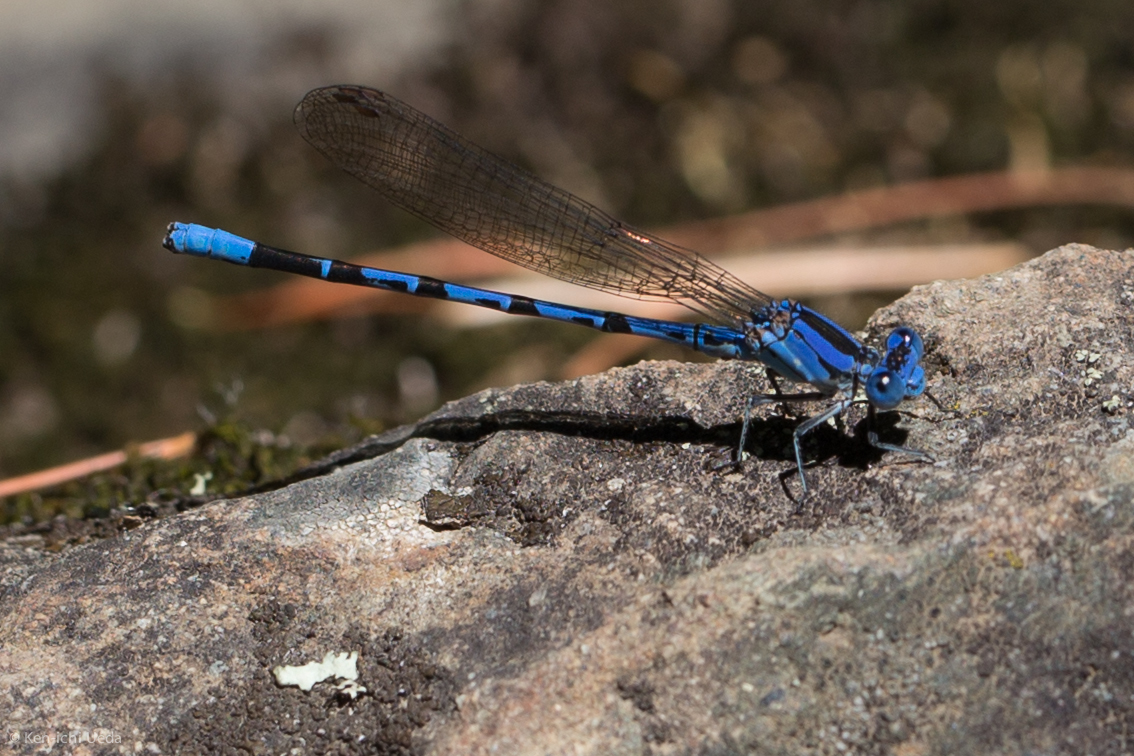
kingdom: Animalia
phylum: Arthropoda
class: Insecta
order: Odonata
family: Coenagrionidae
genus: Argia
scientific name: Argia vivida
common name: Vivid dancer
